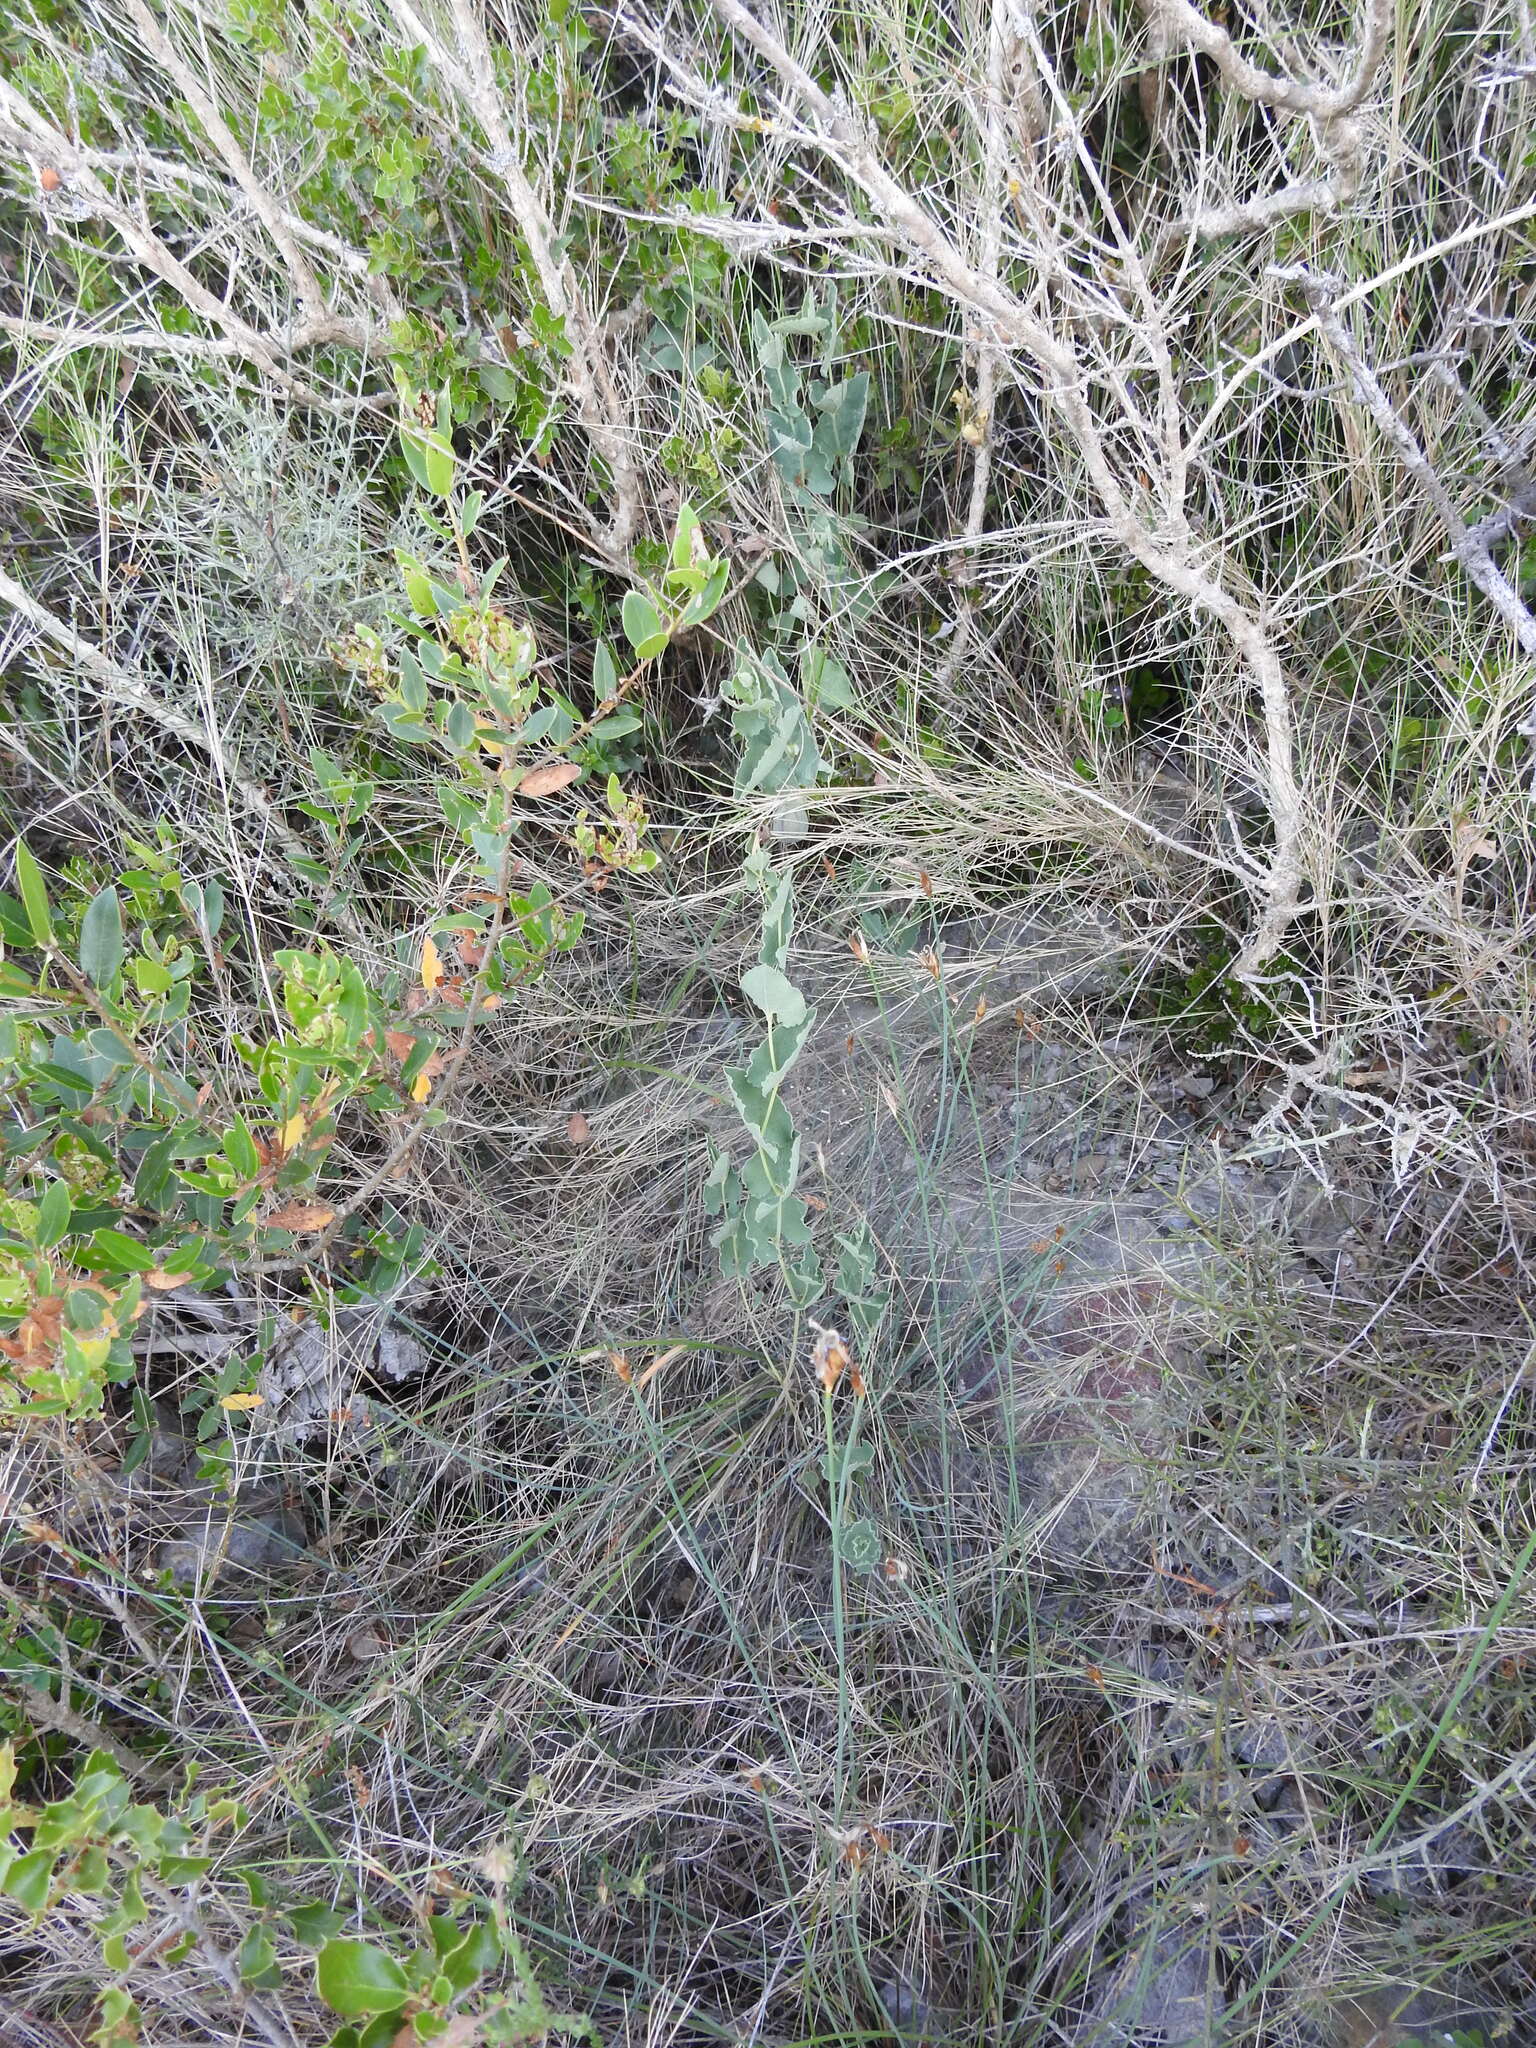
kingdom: Plantae
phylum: Tracheophyta
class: Magnoliopsida
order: Piperales
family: Aristolochiaceae
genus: Aristolochia
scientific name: Aristolochia pistolochia
